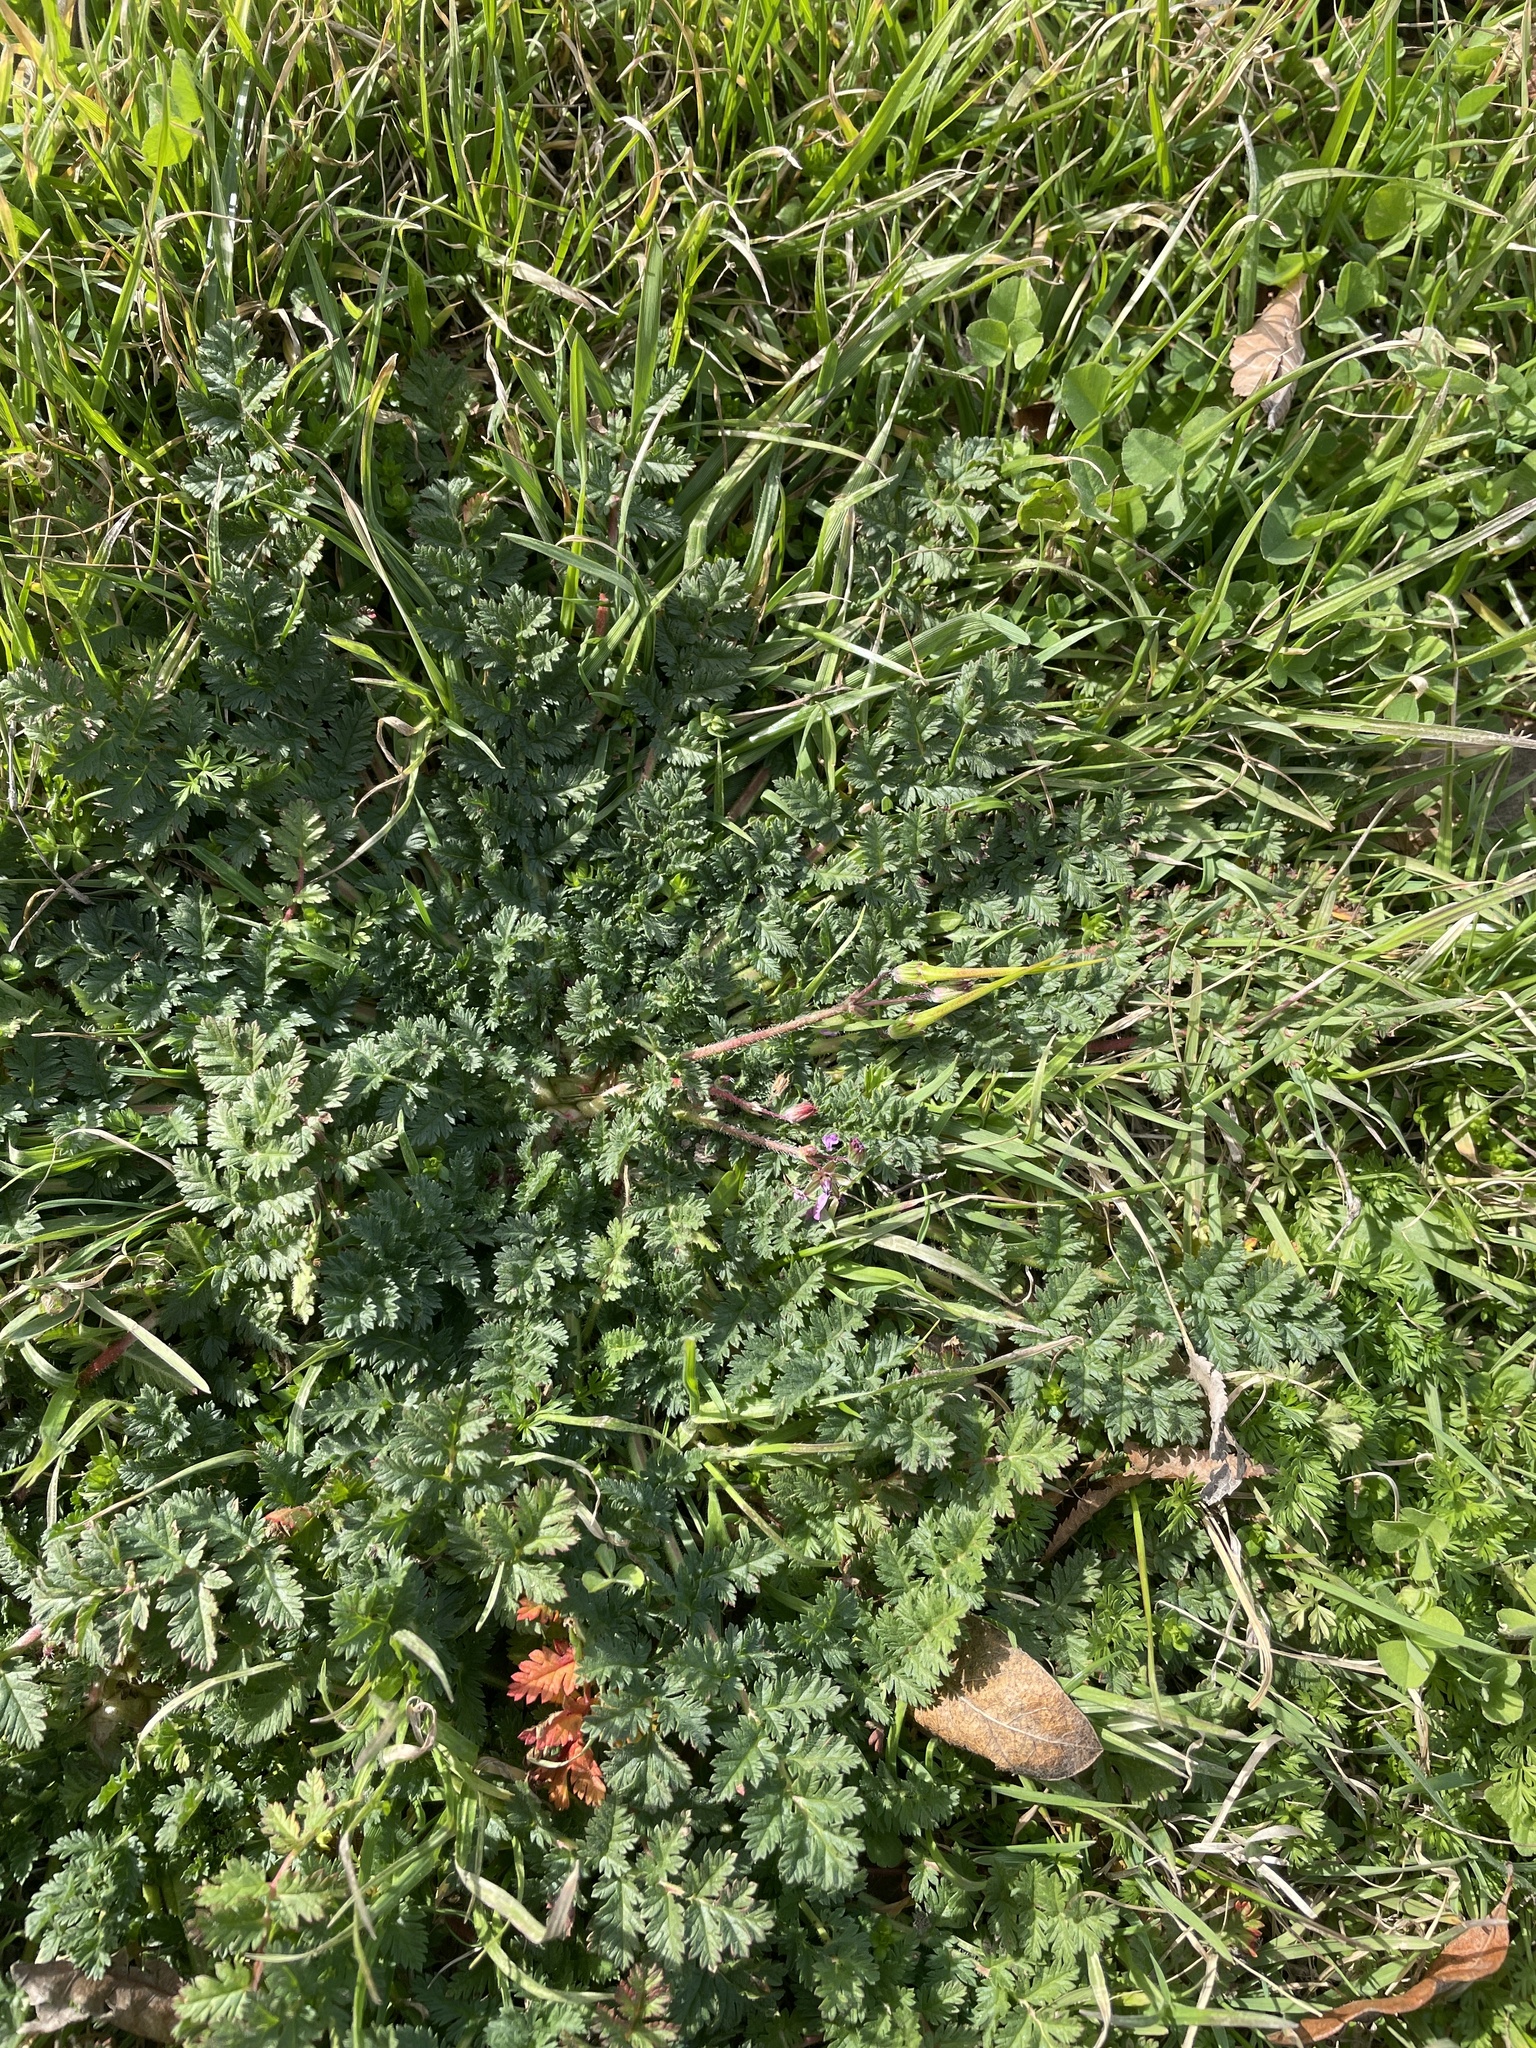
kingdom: Plantae
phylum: Tracheophyta
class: Magnoliopsida
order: Geraniales
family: Geraniaceae
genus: Erodium
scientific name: Erodium cicutarium
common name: Common stork's-bill
